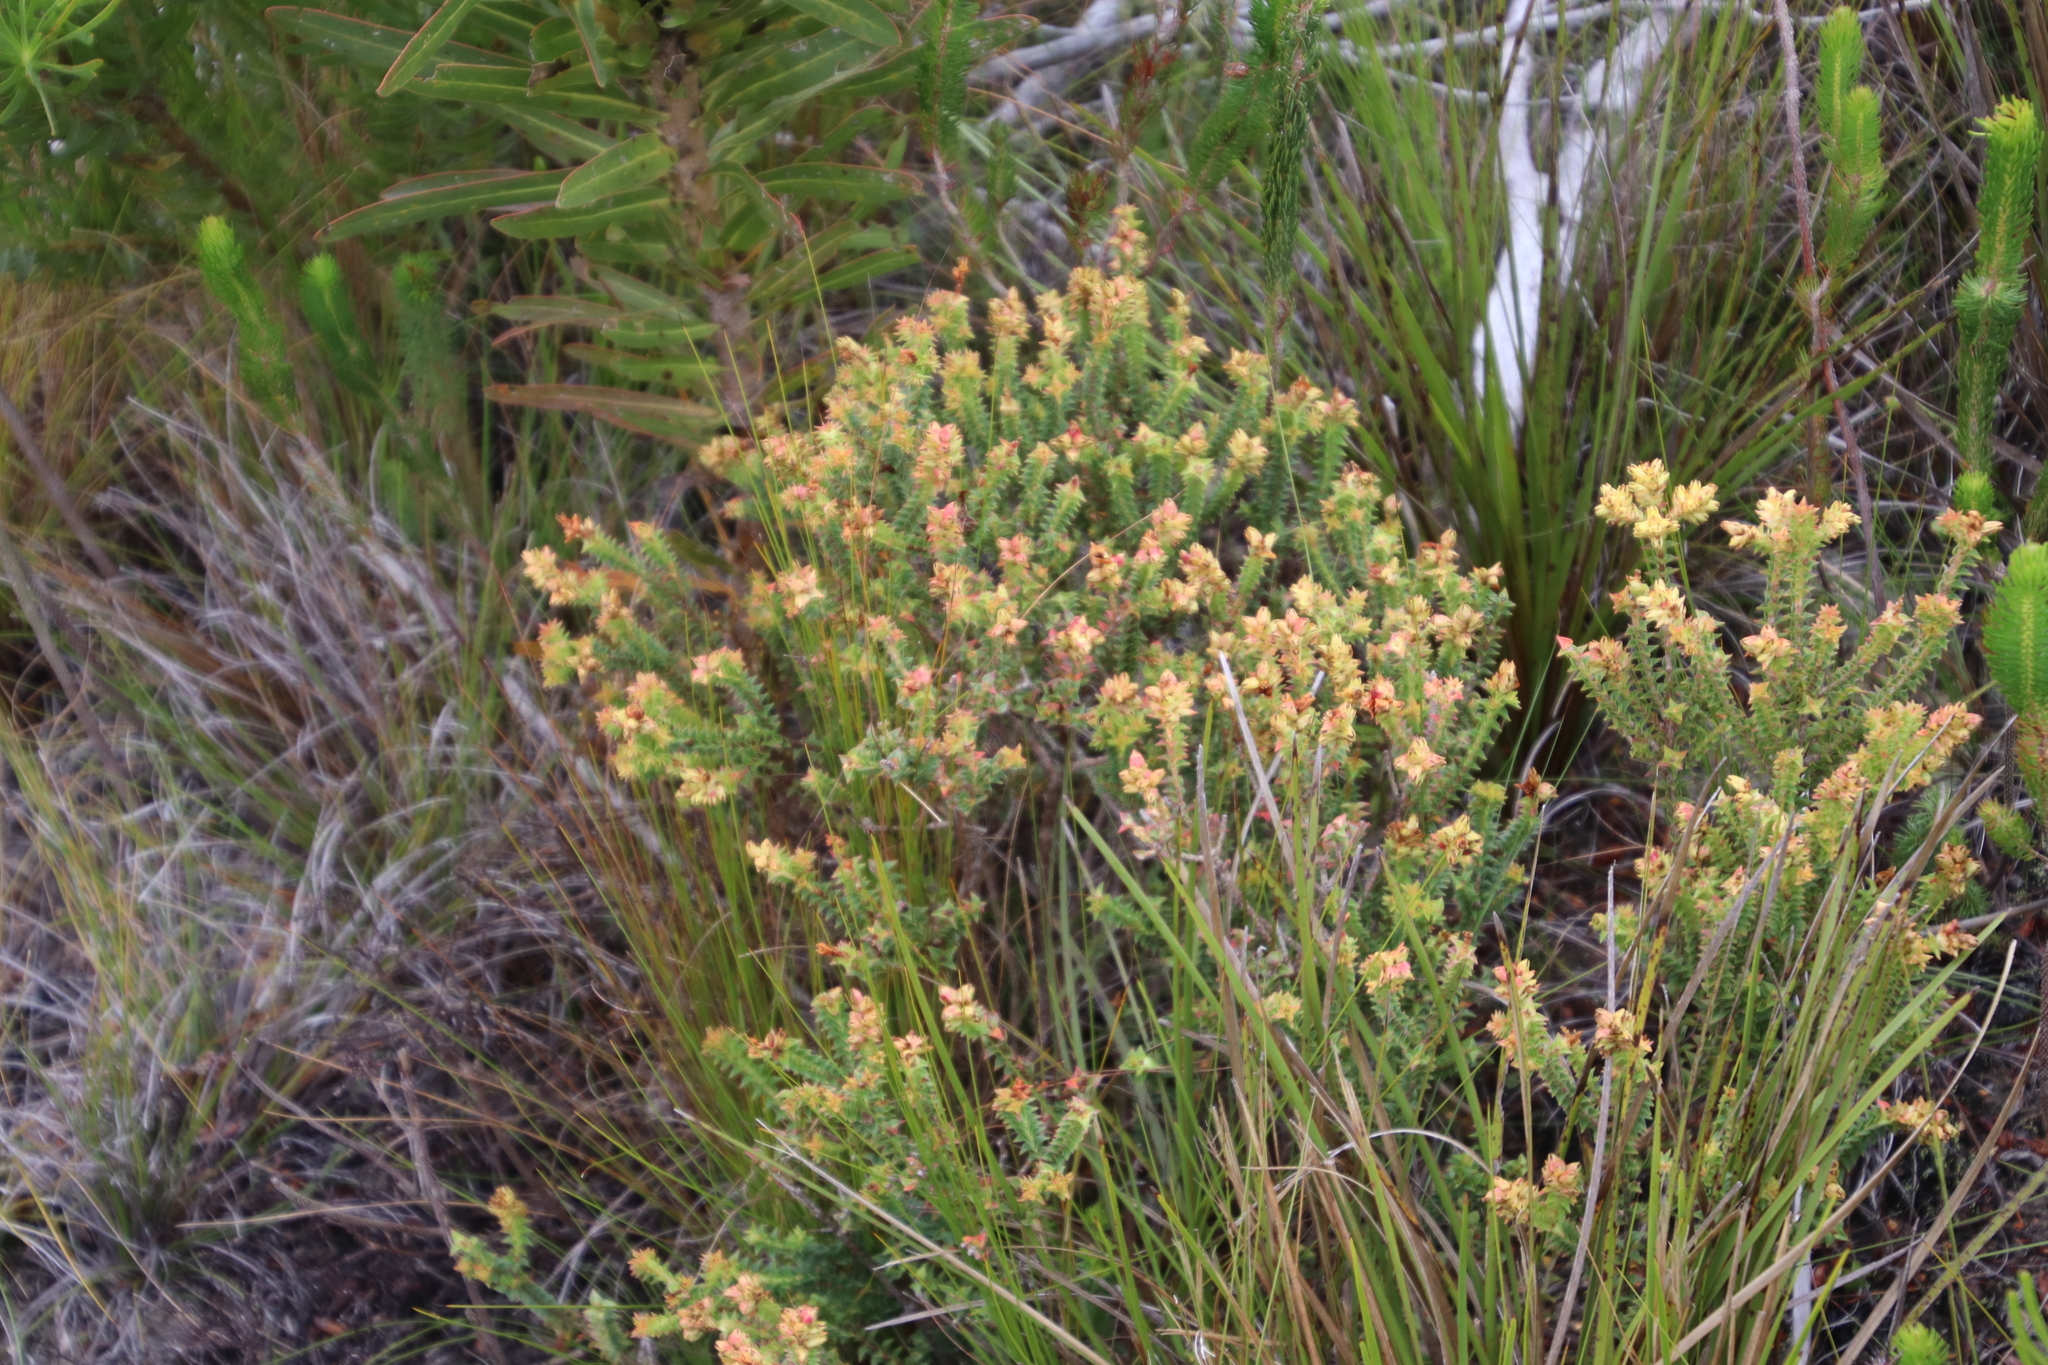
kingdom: Plantae
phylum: Tracheophyta
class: Magnoliopsida
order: Myrtales
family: Penaeaceae
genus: Penaea
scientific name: Penaea mucronata
